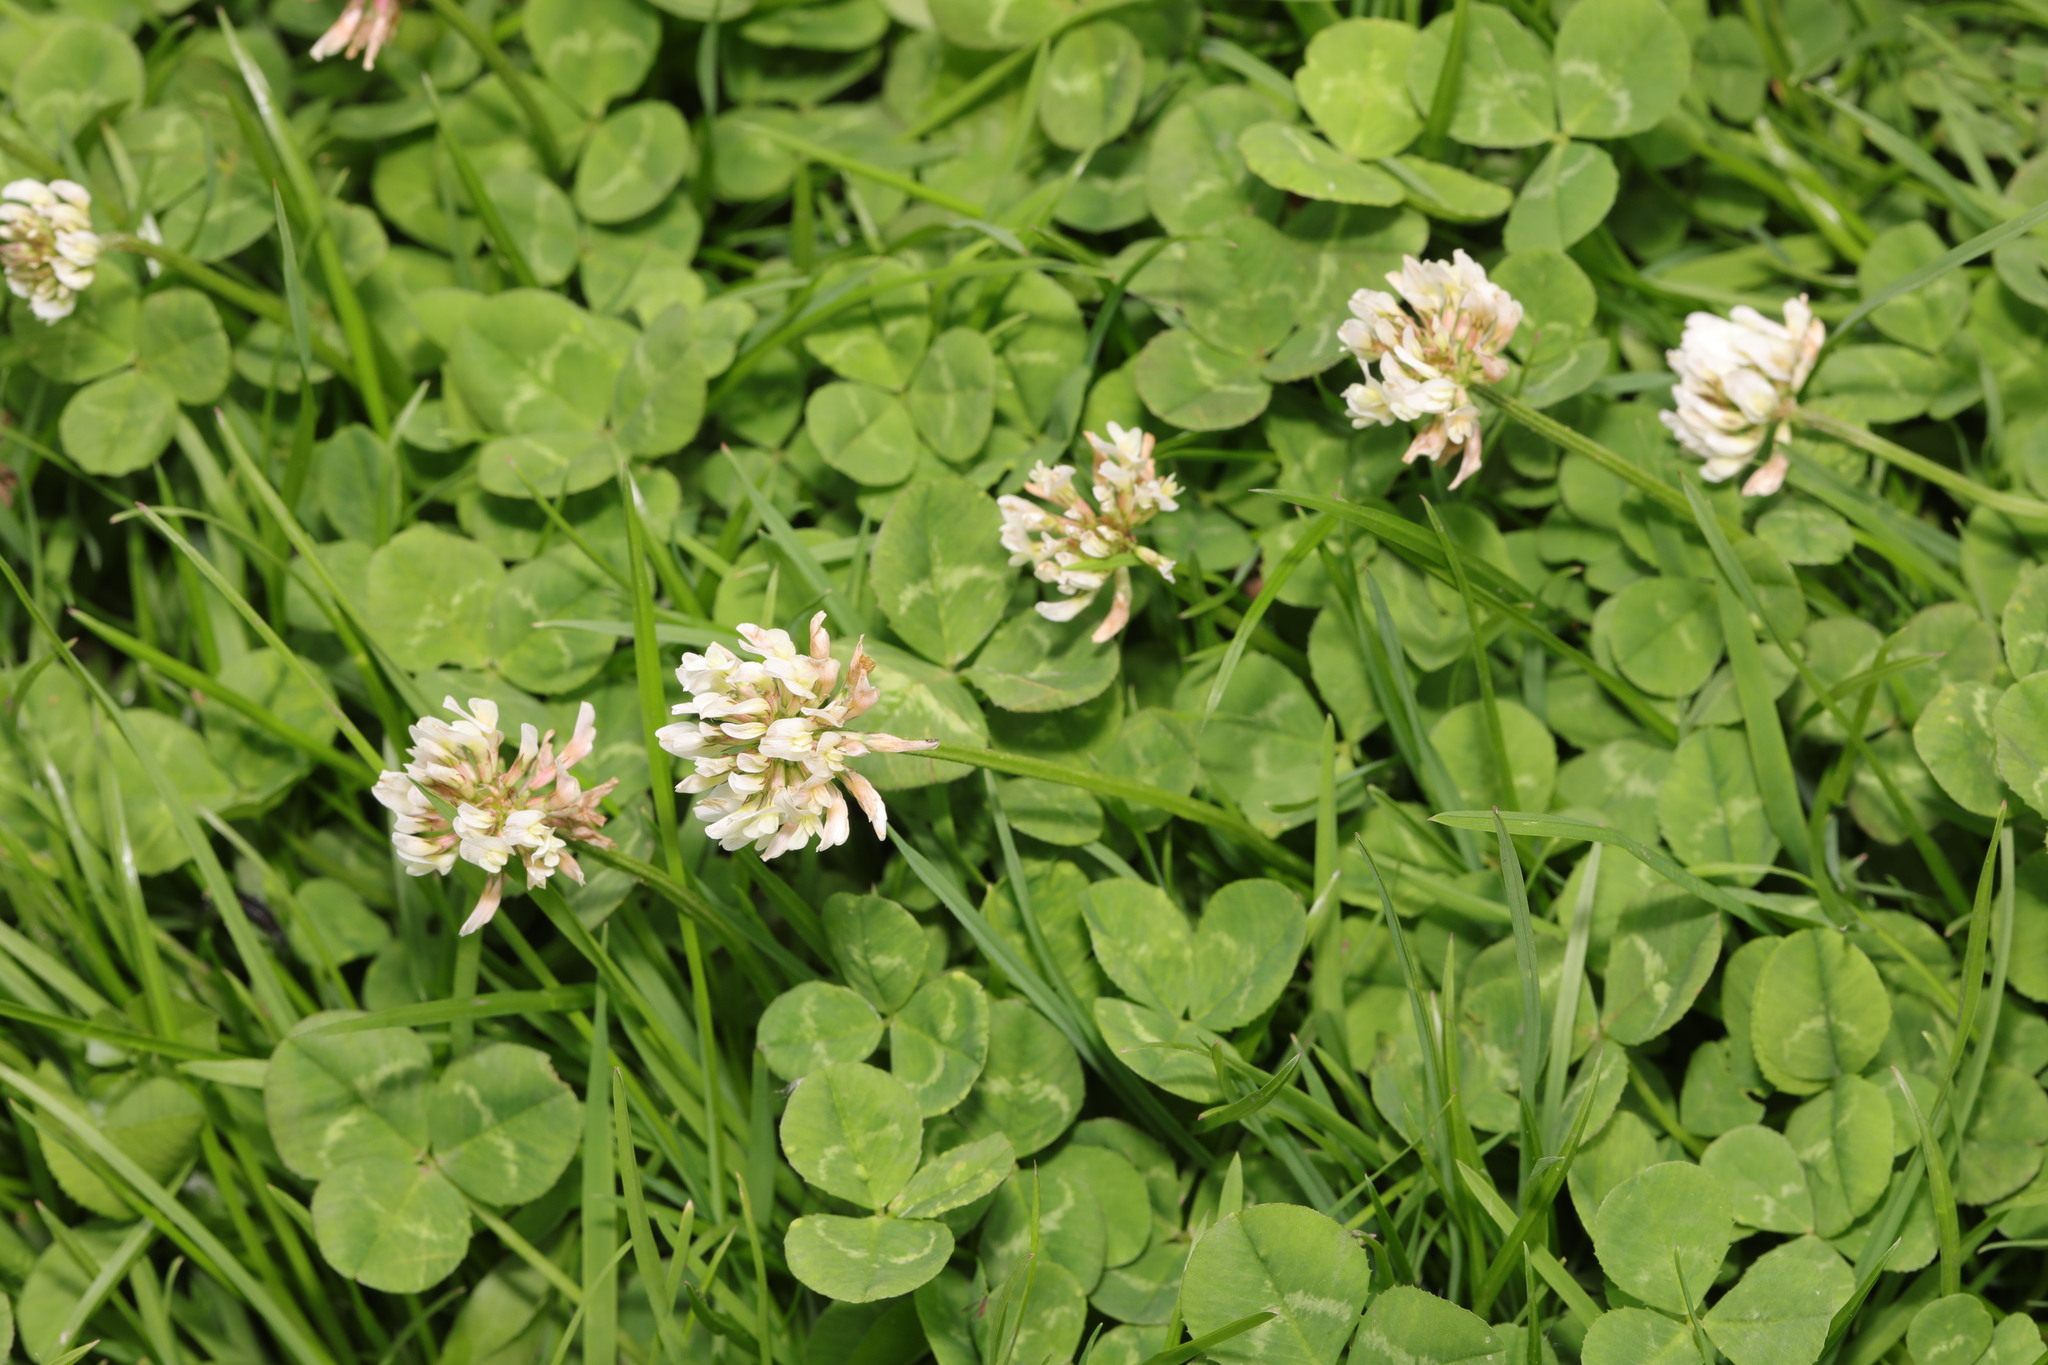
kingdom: Plantae
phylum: Tracheophyta
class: Magnoliopsida
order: Fabales
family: Fabaceae
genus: Trifolium
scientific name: Trifolium repens
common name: White clover
